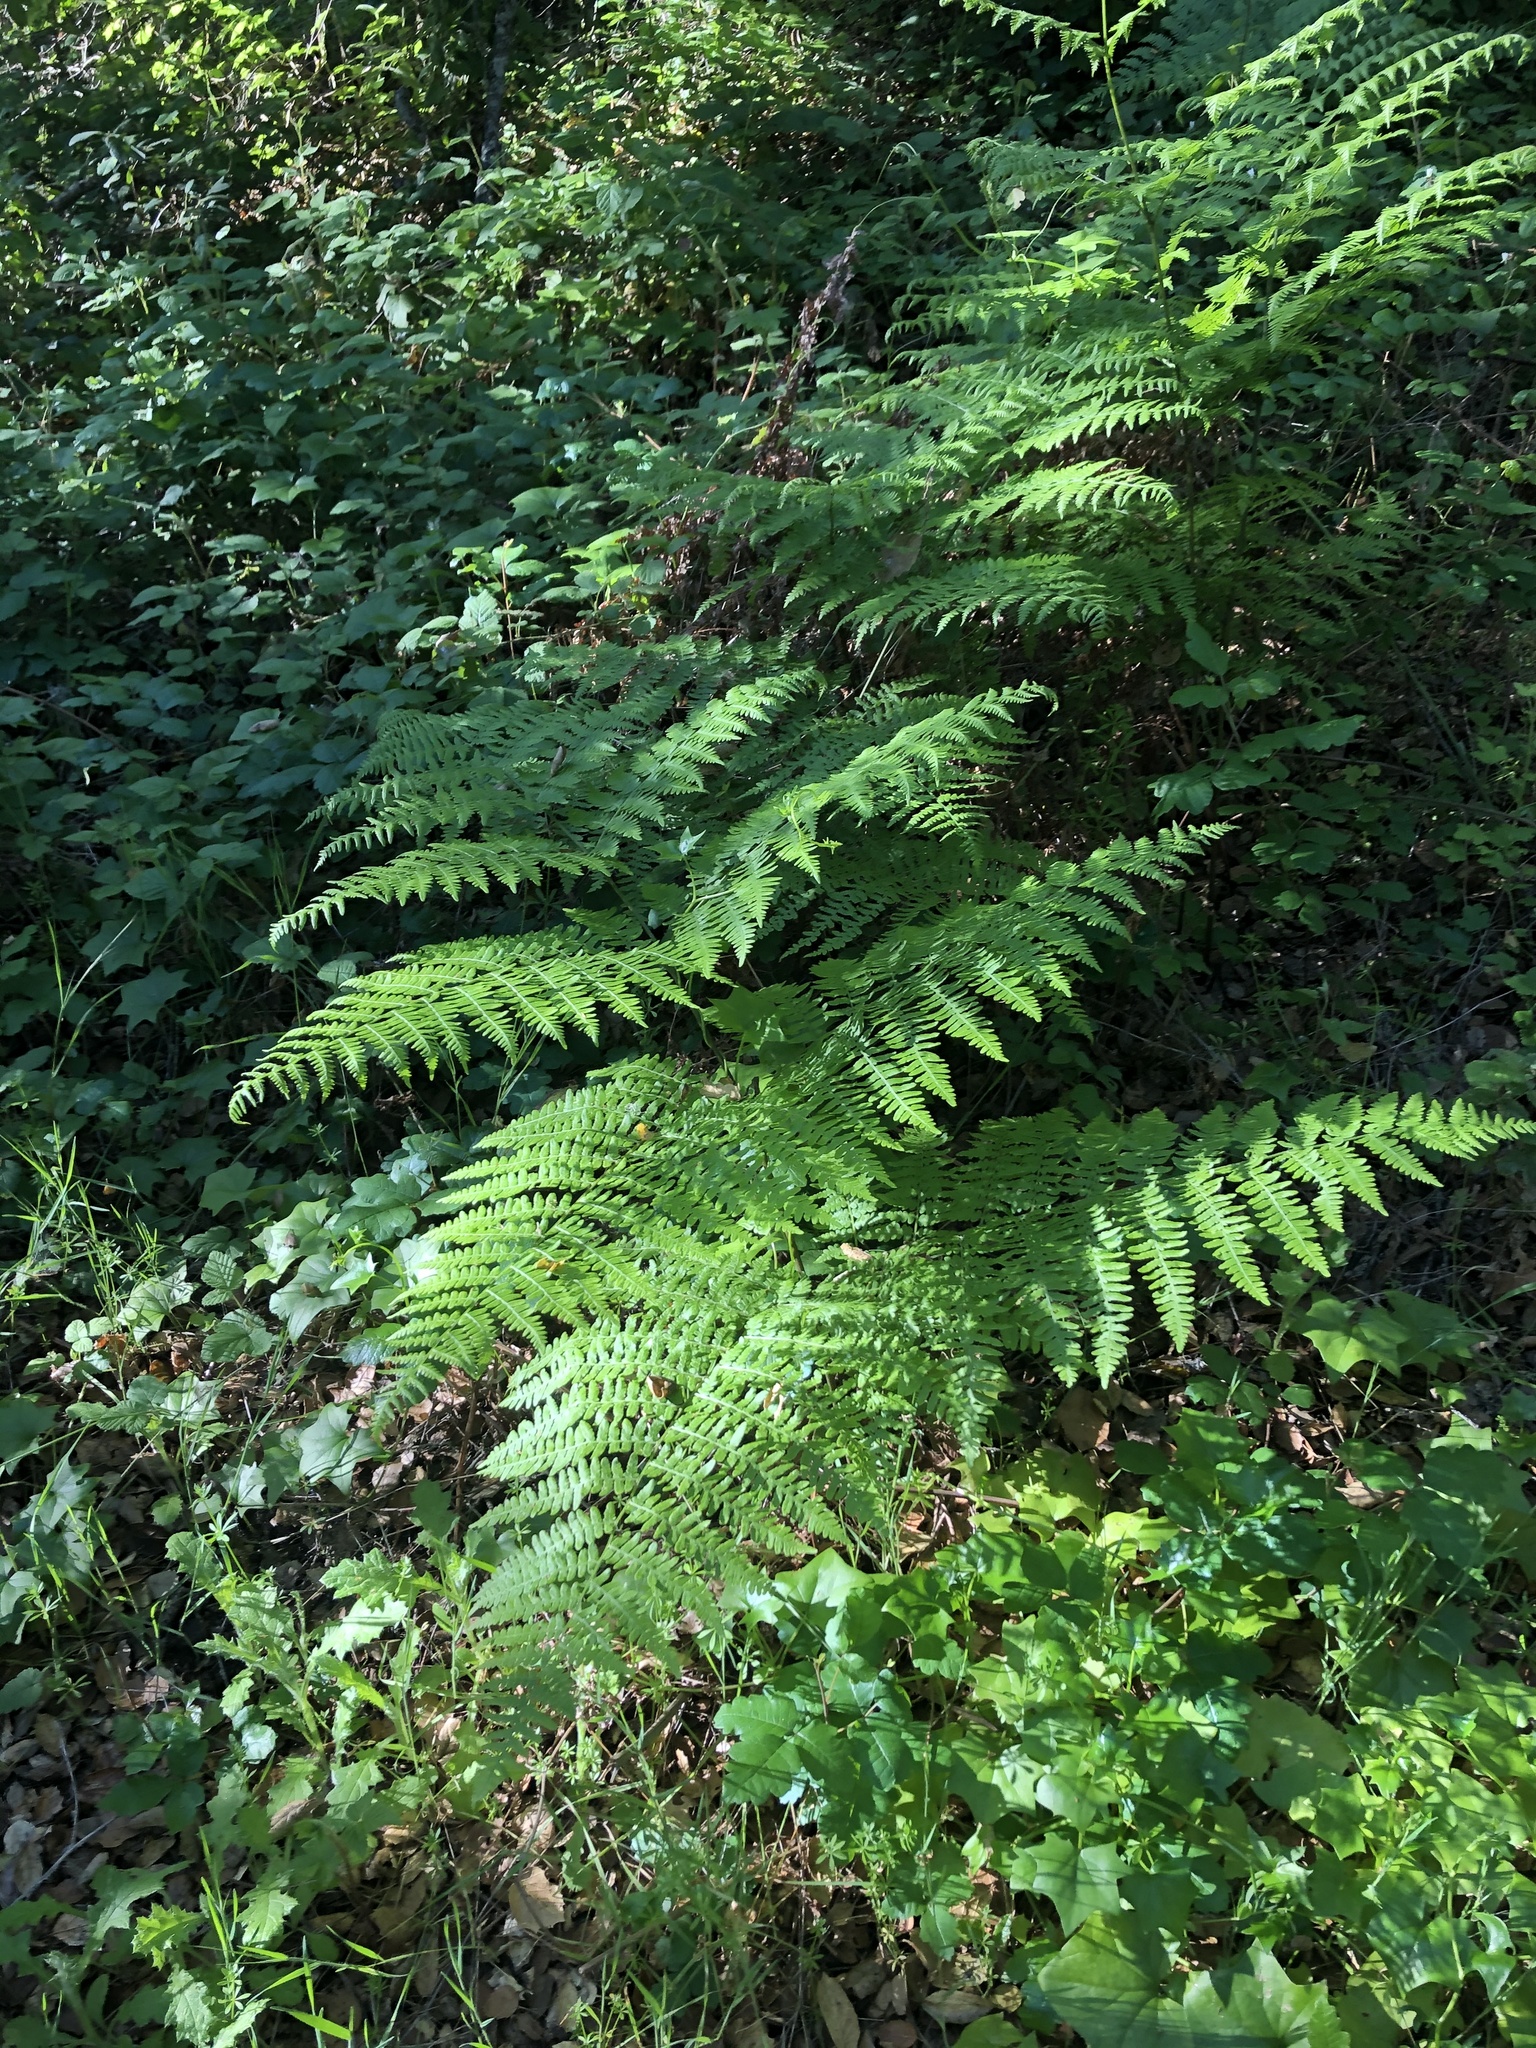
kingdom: Plantae
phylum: Tracheophyta
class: Polypodiopsida
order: Polypodiales
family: Dennstaedtiaceae
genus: Pteridium
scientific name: Pteridium aquilinum
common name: Bracken
